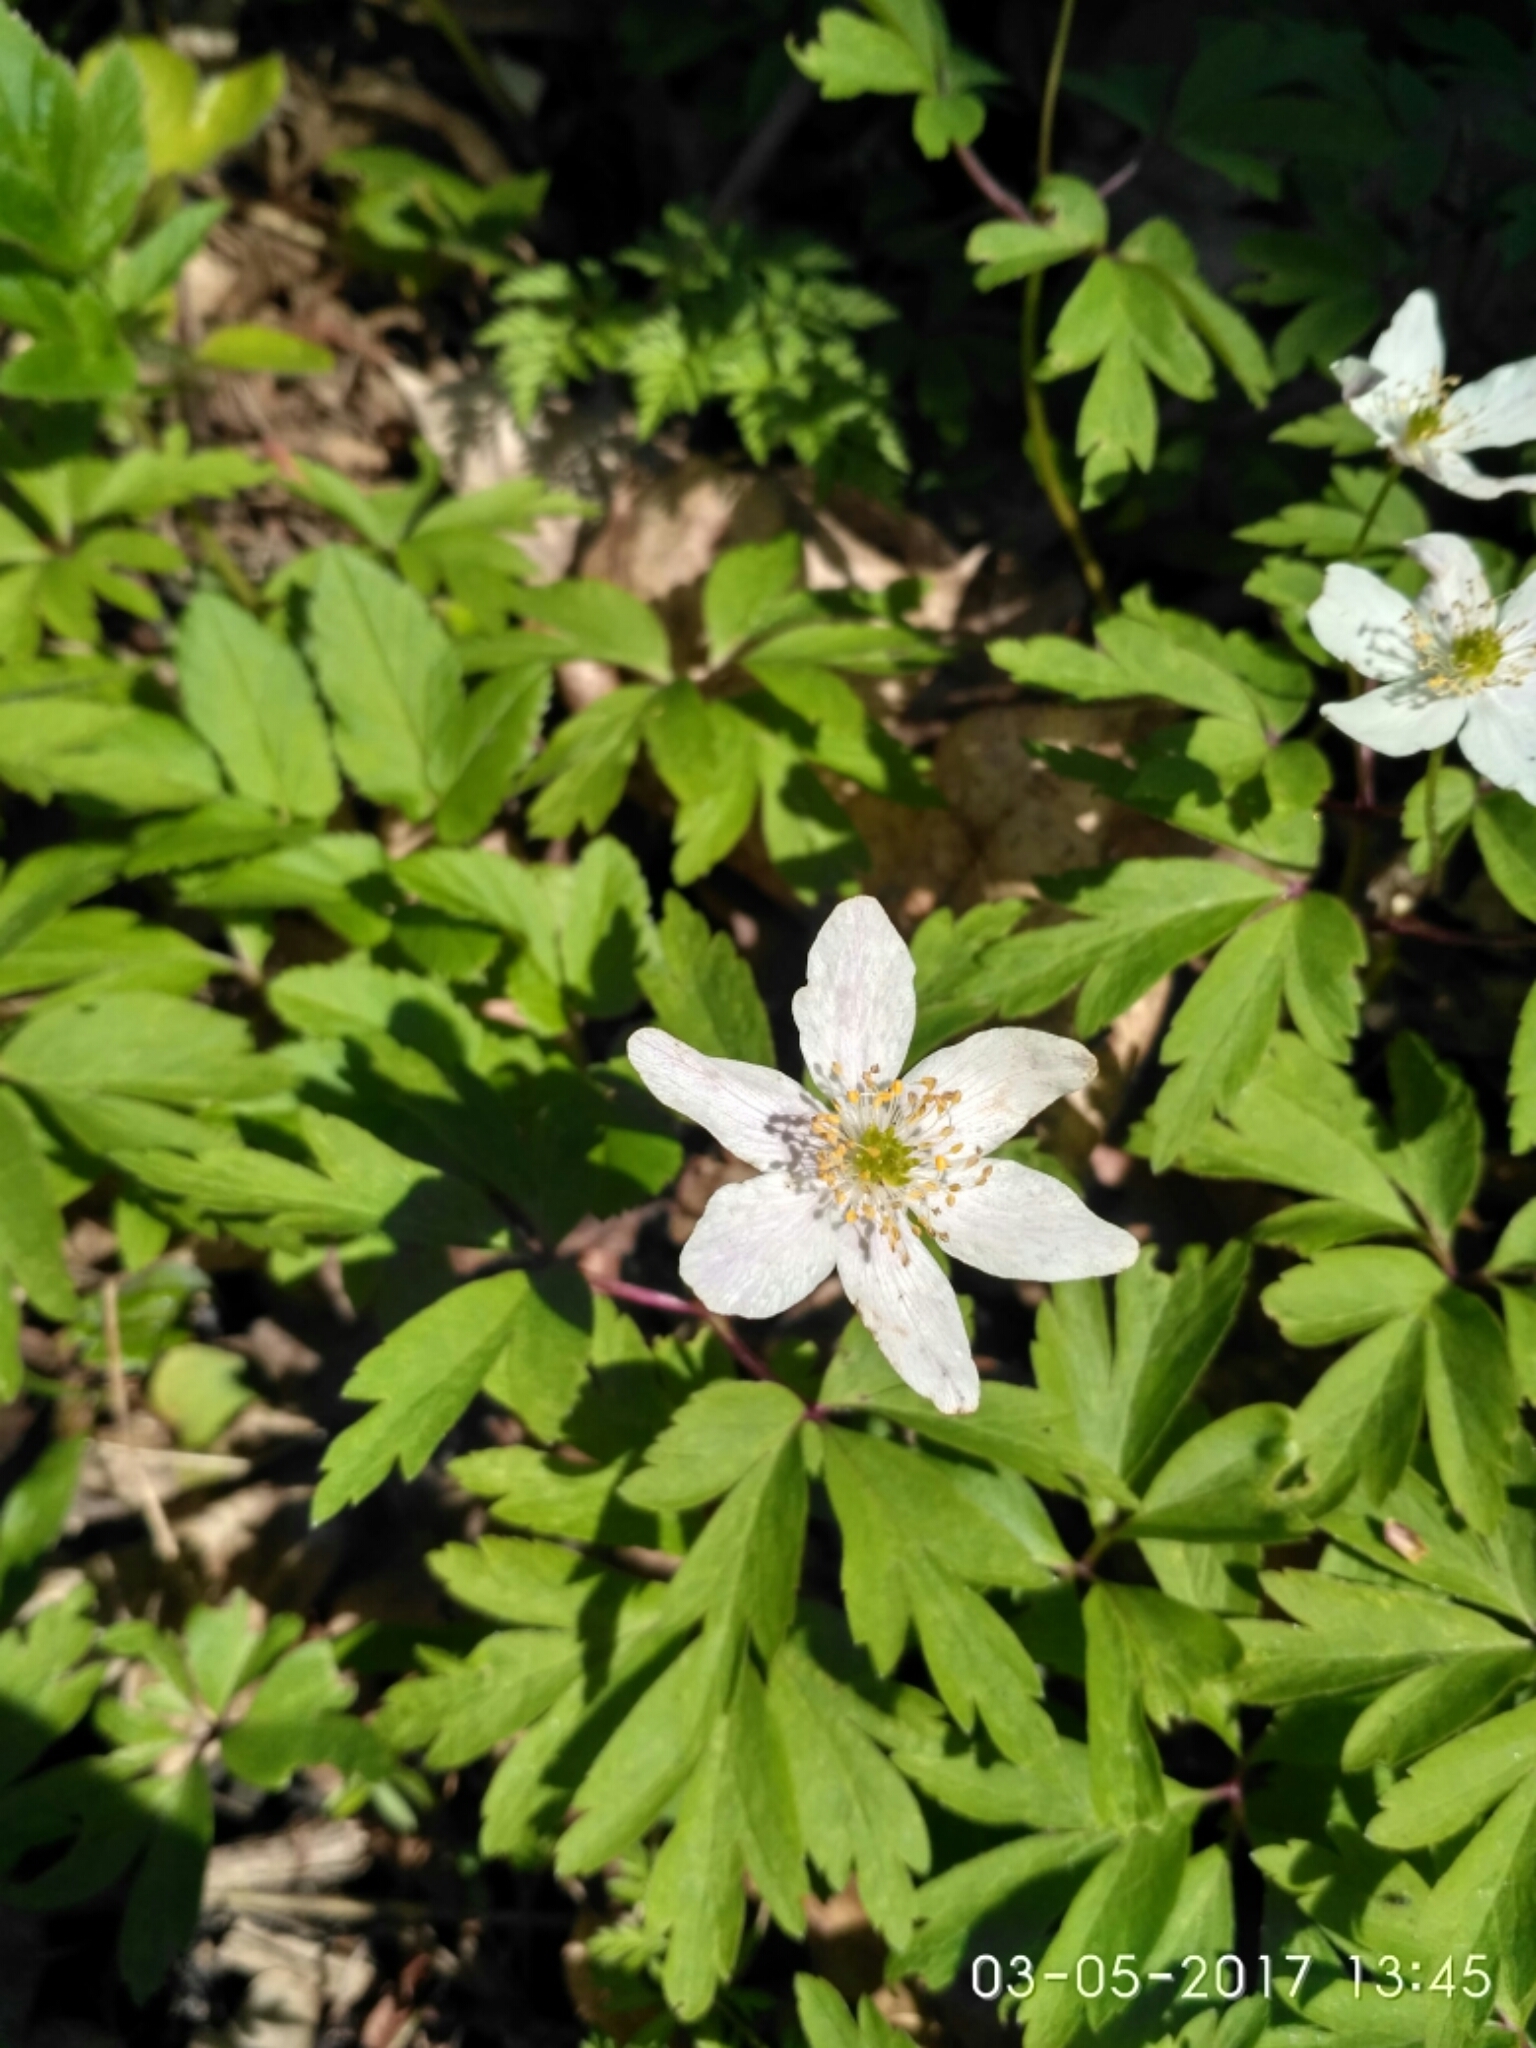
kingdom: Plantae
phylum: Tracheophyta
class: Magnoliopsida
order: Ranunculales
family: Ranunculaceae
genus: Anemone
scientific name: Anemone nemorosa
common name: Wood anemone
